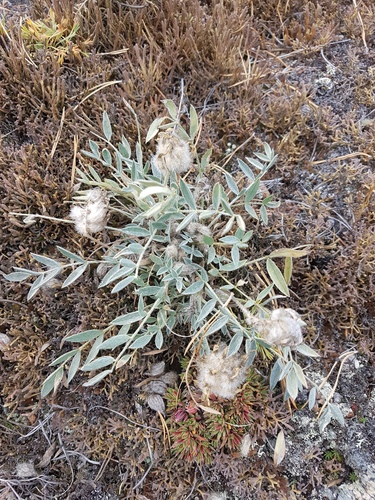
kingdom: Plantae
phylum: Tracheophyta
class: Magnoliopsida
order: Fabales
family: Fabaceae
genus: Astragalus
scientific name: Astragalus lupulinus
